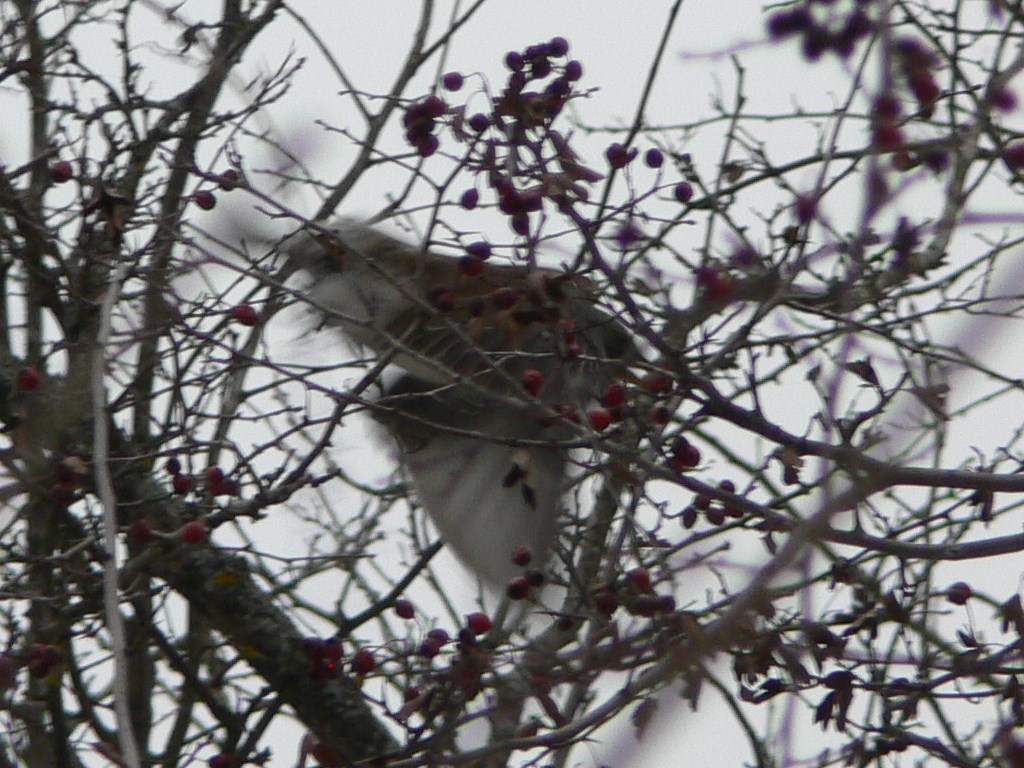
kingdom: Animalia
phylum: Chordata
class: Aves
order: Passeriformes
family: Turdidae
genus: Turdus
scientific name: Turdus pilaris
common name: Fieldfare
